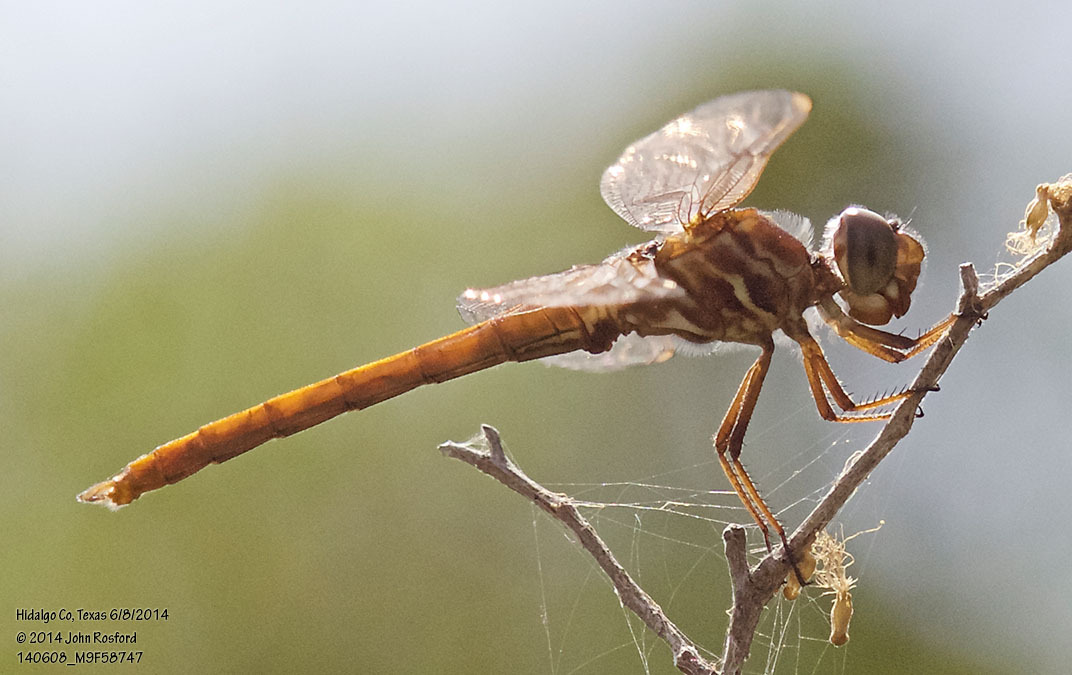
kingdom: Animalia
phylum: Arthropoda
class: Insecta
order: Odonata
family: Libellulidae
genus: Orthemis
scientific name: Orthemis ferruginea
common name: Roseate skimmer
